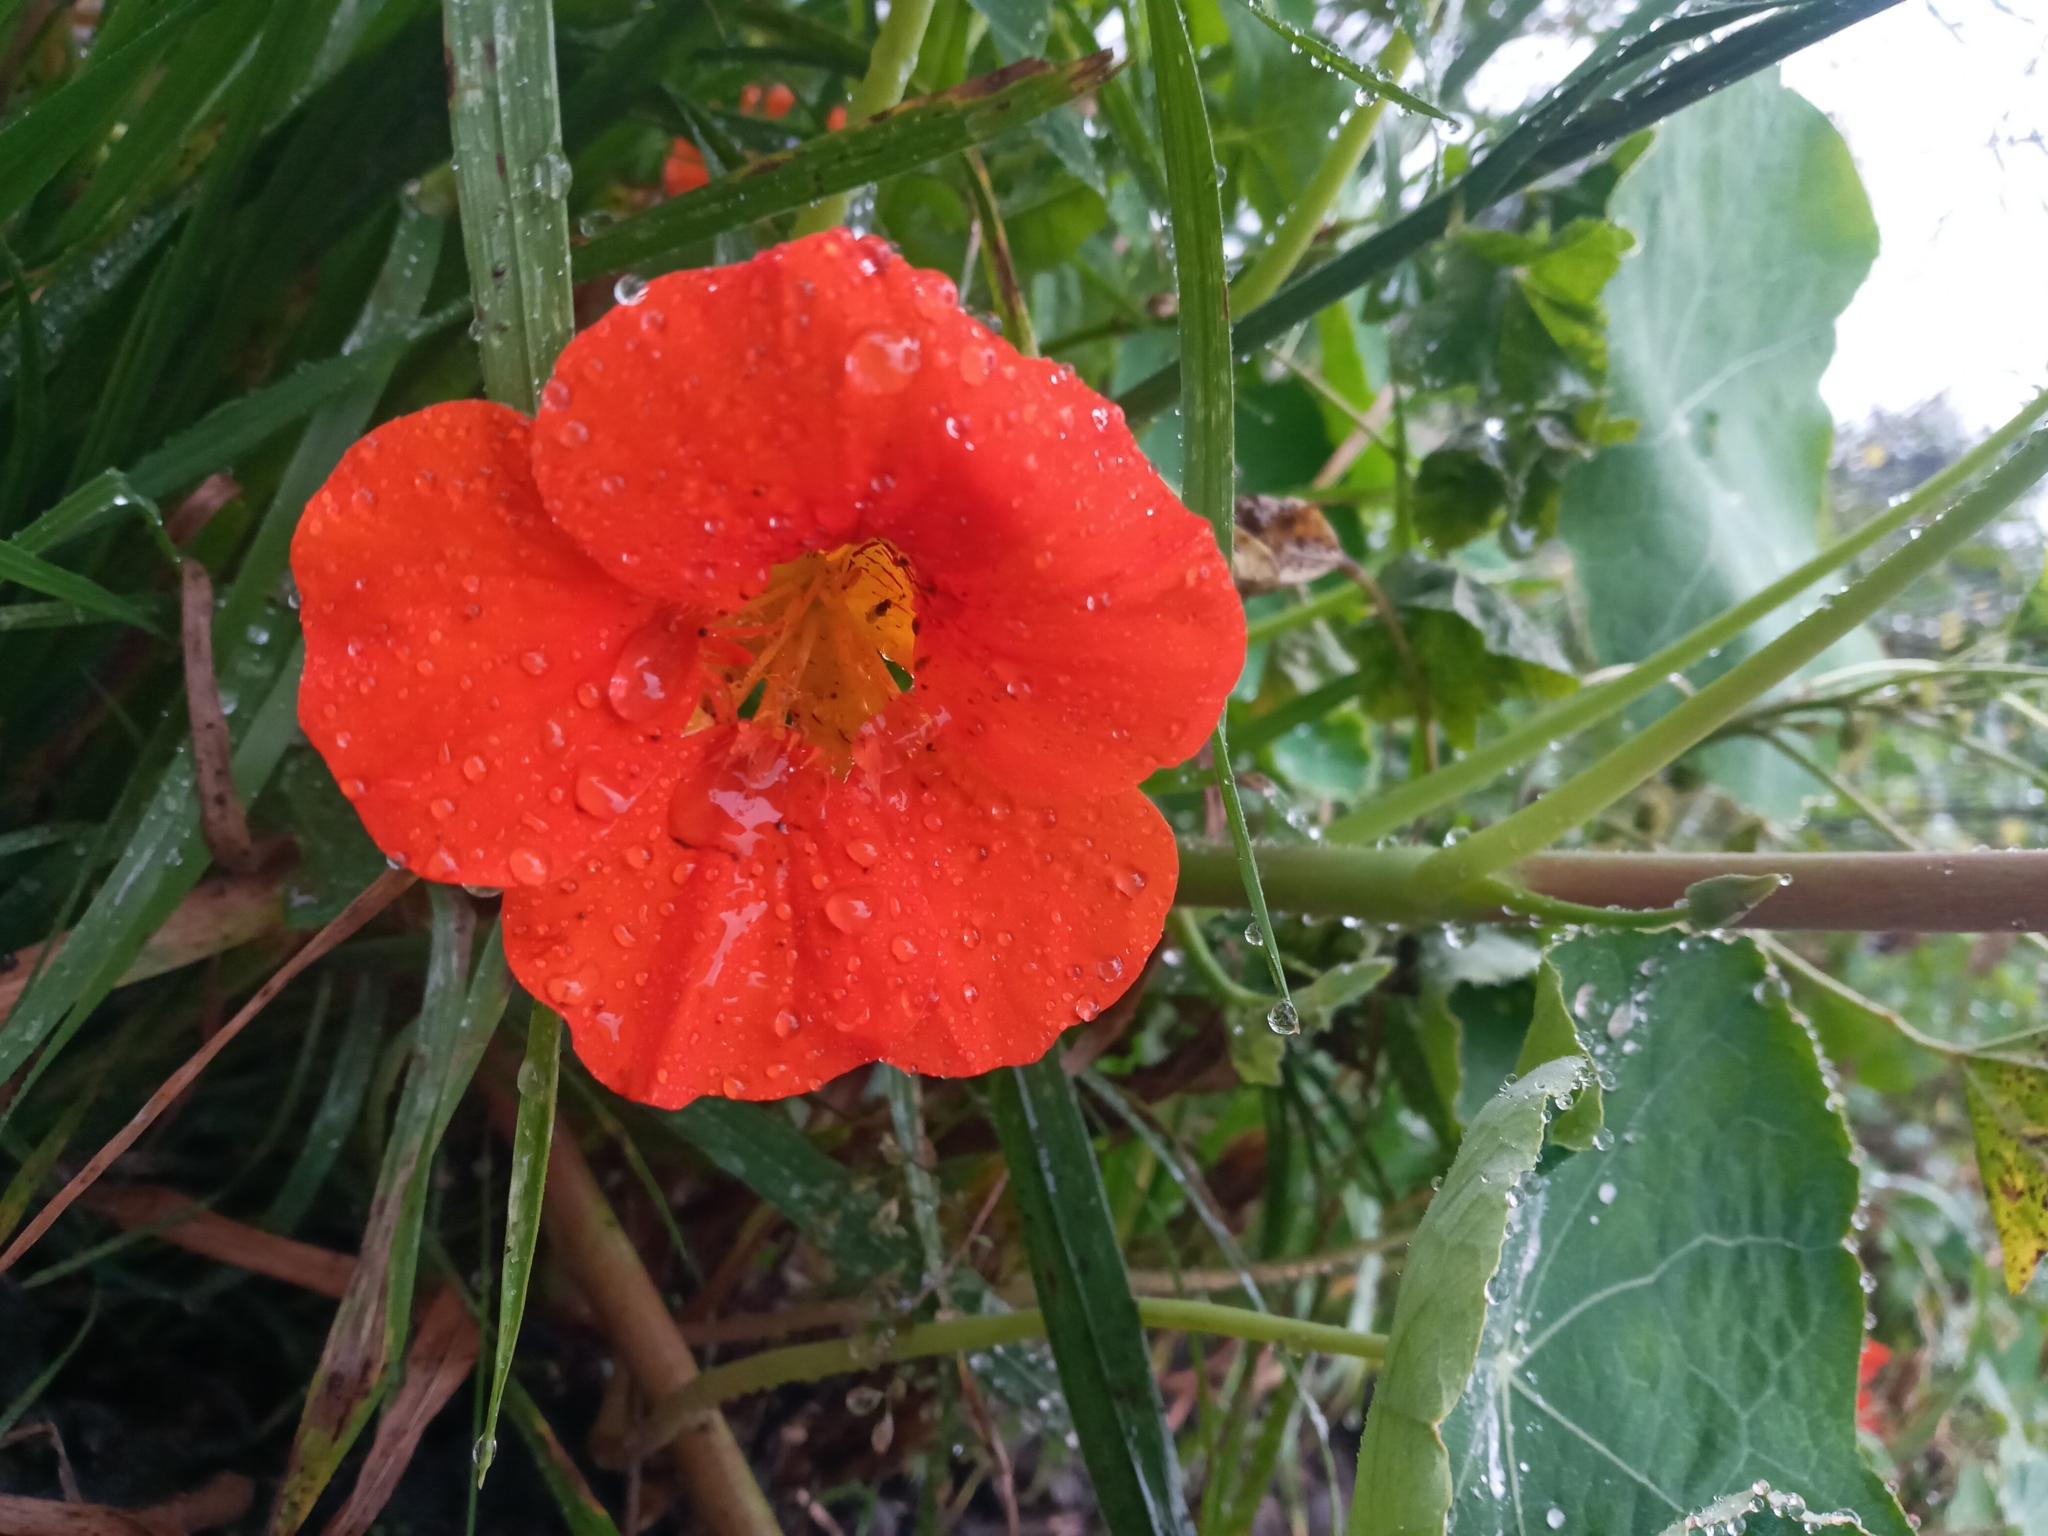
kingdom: Plantae
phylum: Tracheophyta
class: Magnoliopsida
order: Brassicales
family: Tropaeolaceae
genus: Tropaeolum
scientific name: Tropaeolum majus
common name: Nasturtium
